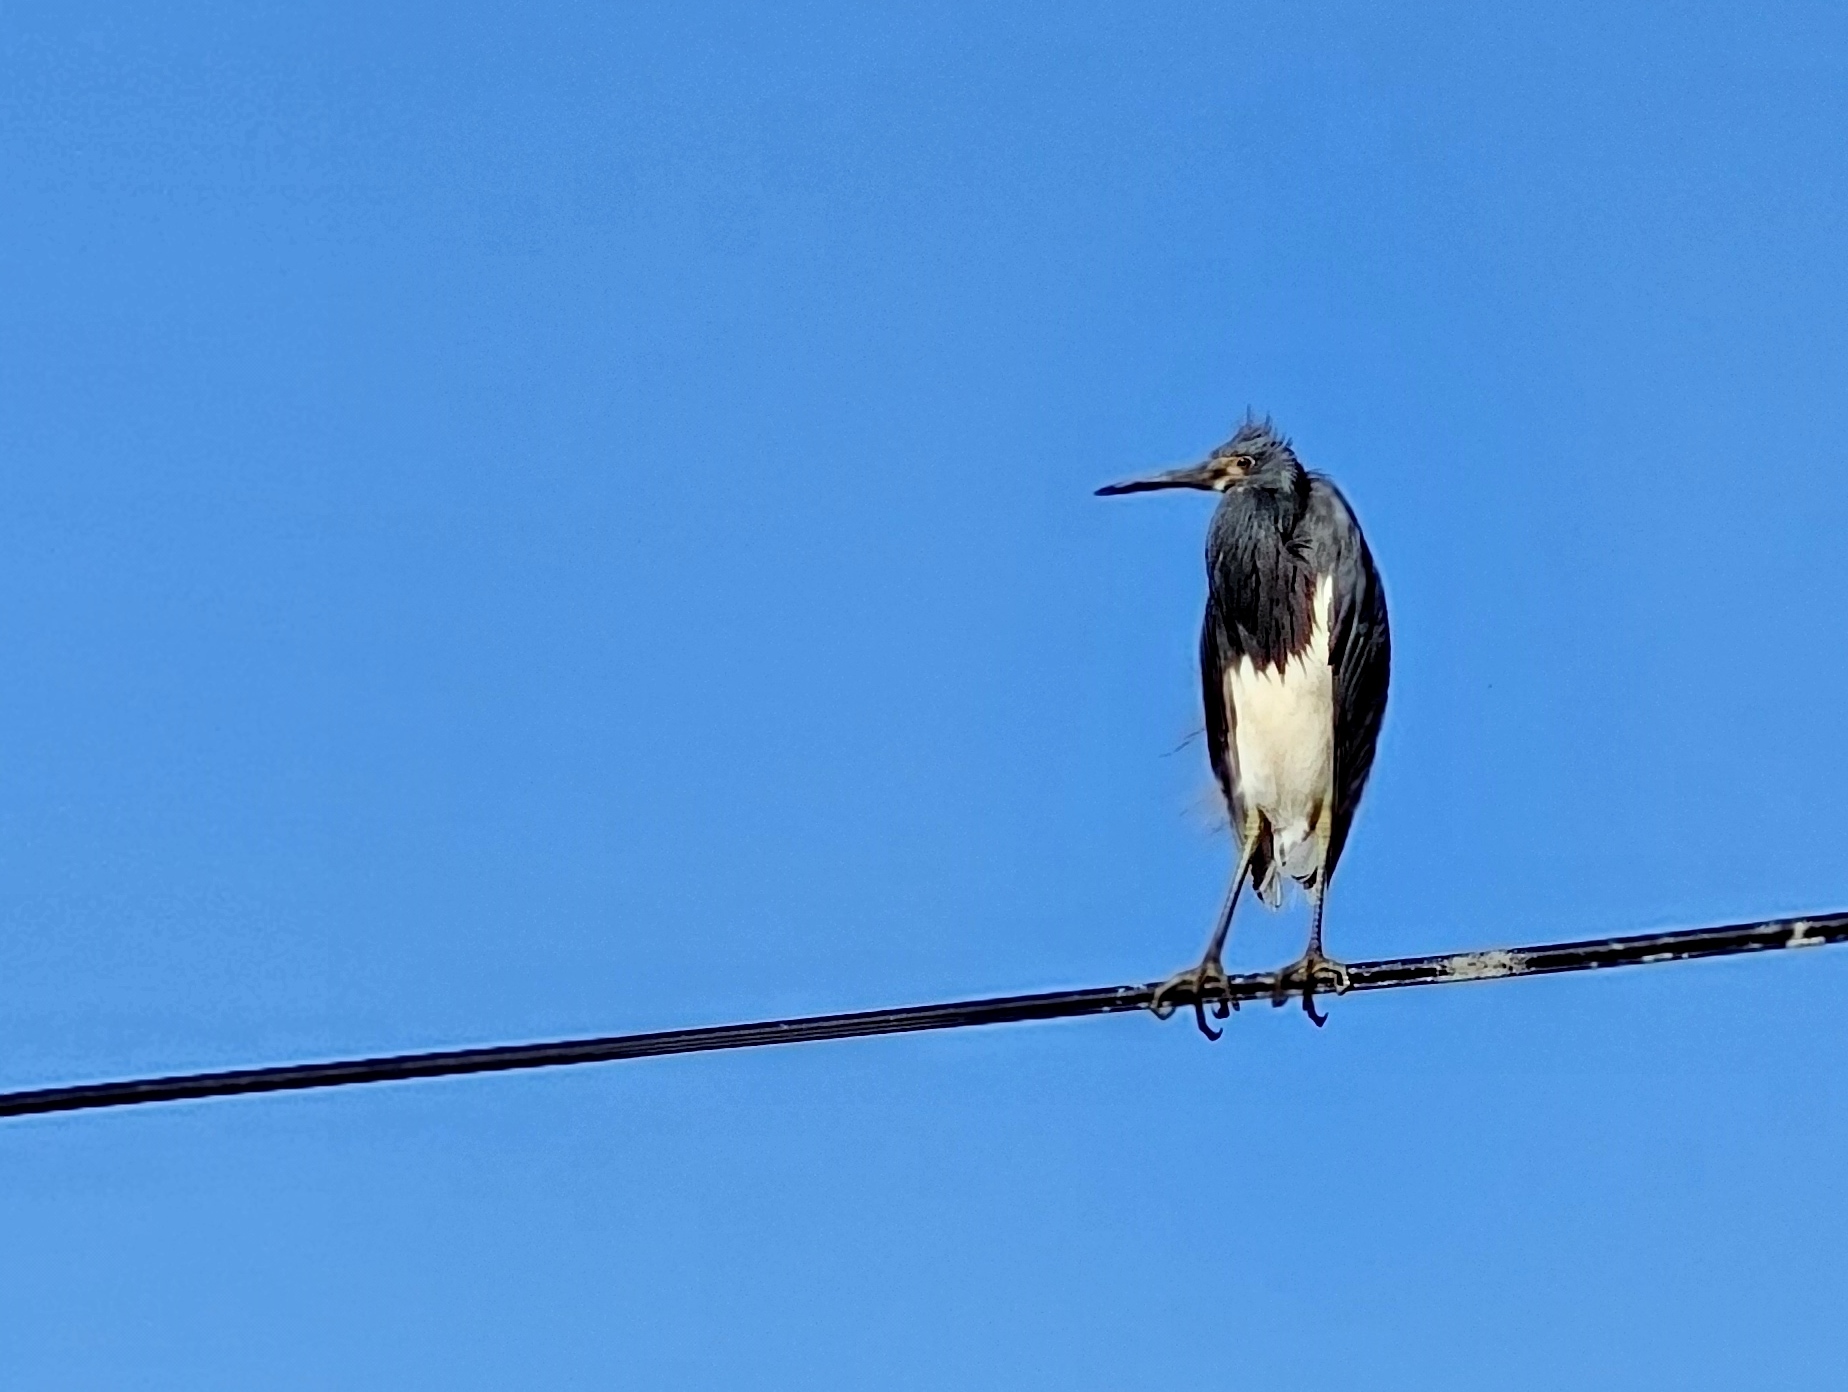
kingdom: Animalia
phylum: Chordata
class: Aves
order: Pelecaniformes
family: Ardeidae
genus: Egretta
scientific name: Egretta tricolor
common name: Tricolored heron
